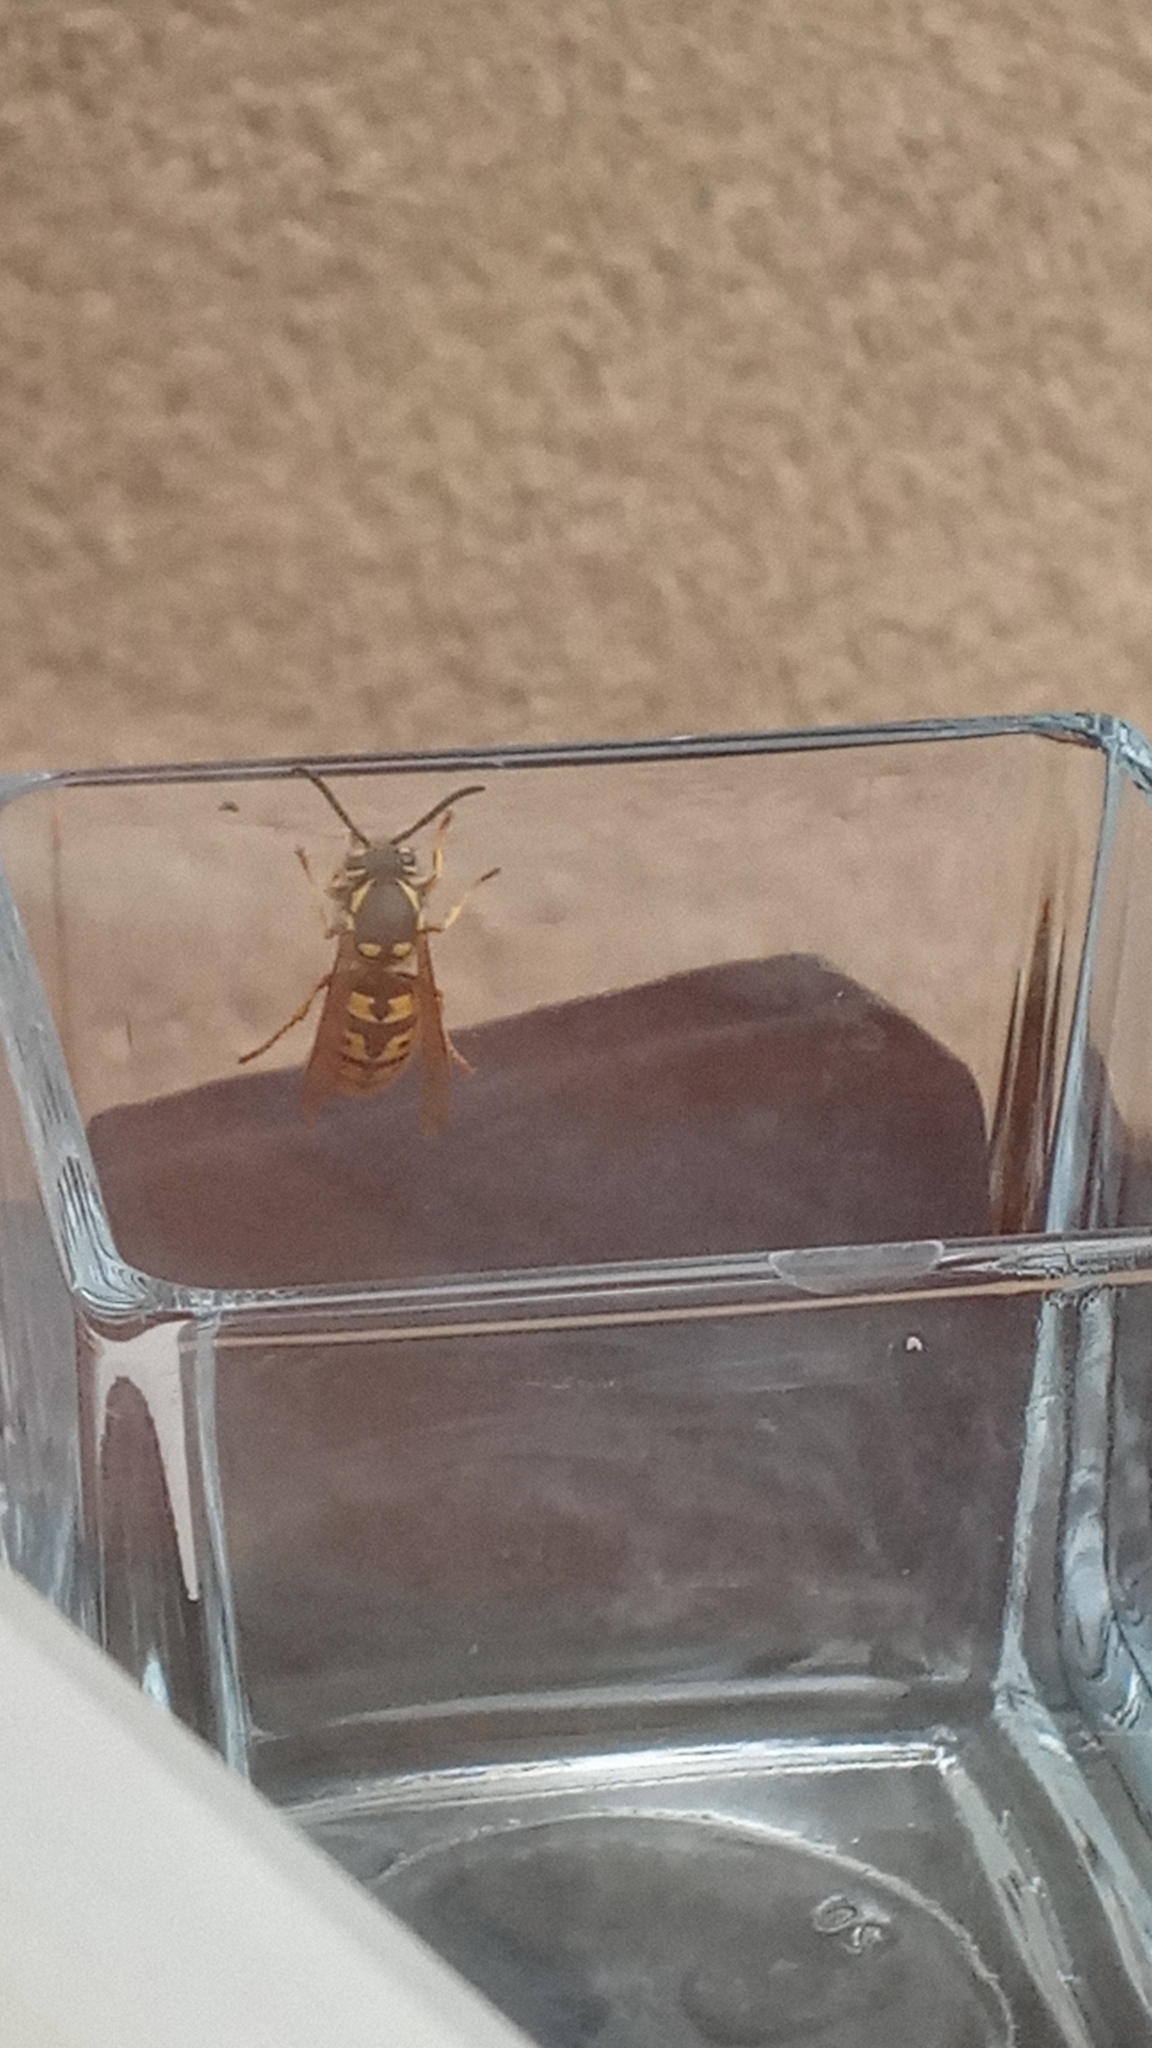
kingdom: Animalia
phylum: Arthropoda
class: Insecta
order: Hymenoptera
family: Vespidae
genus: Vespula
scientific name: Vespula germanica
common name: German wasp
